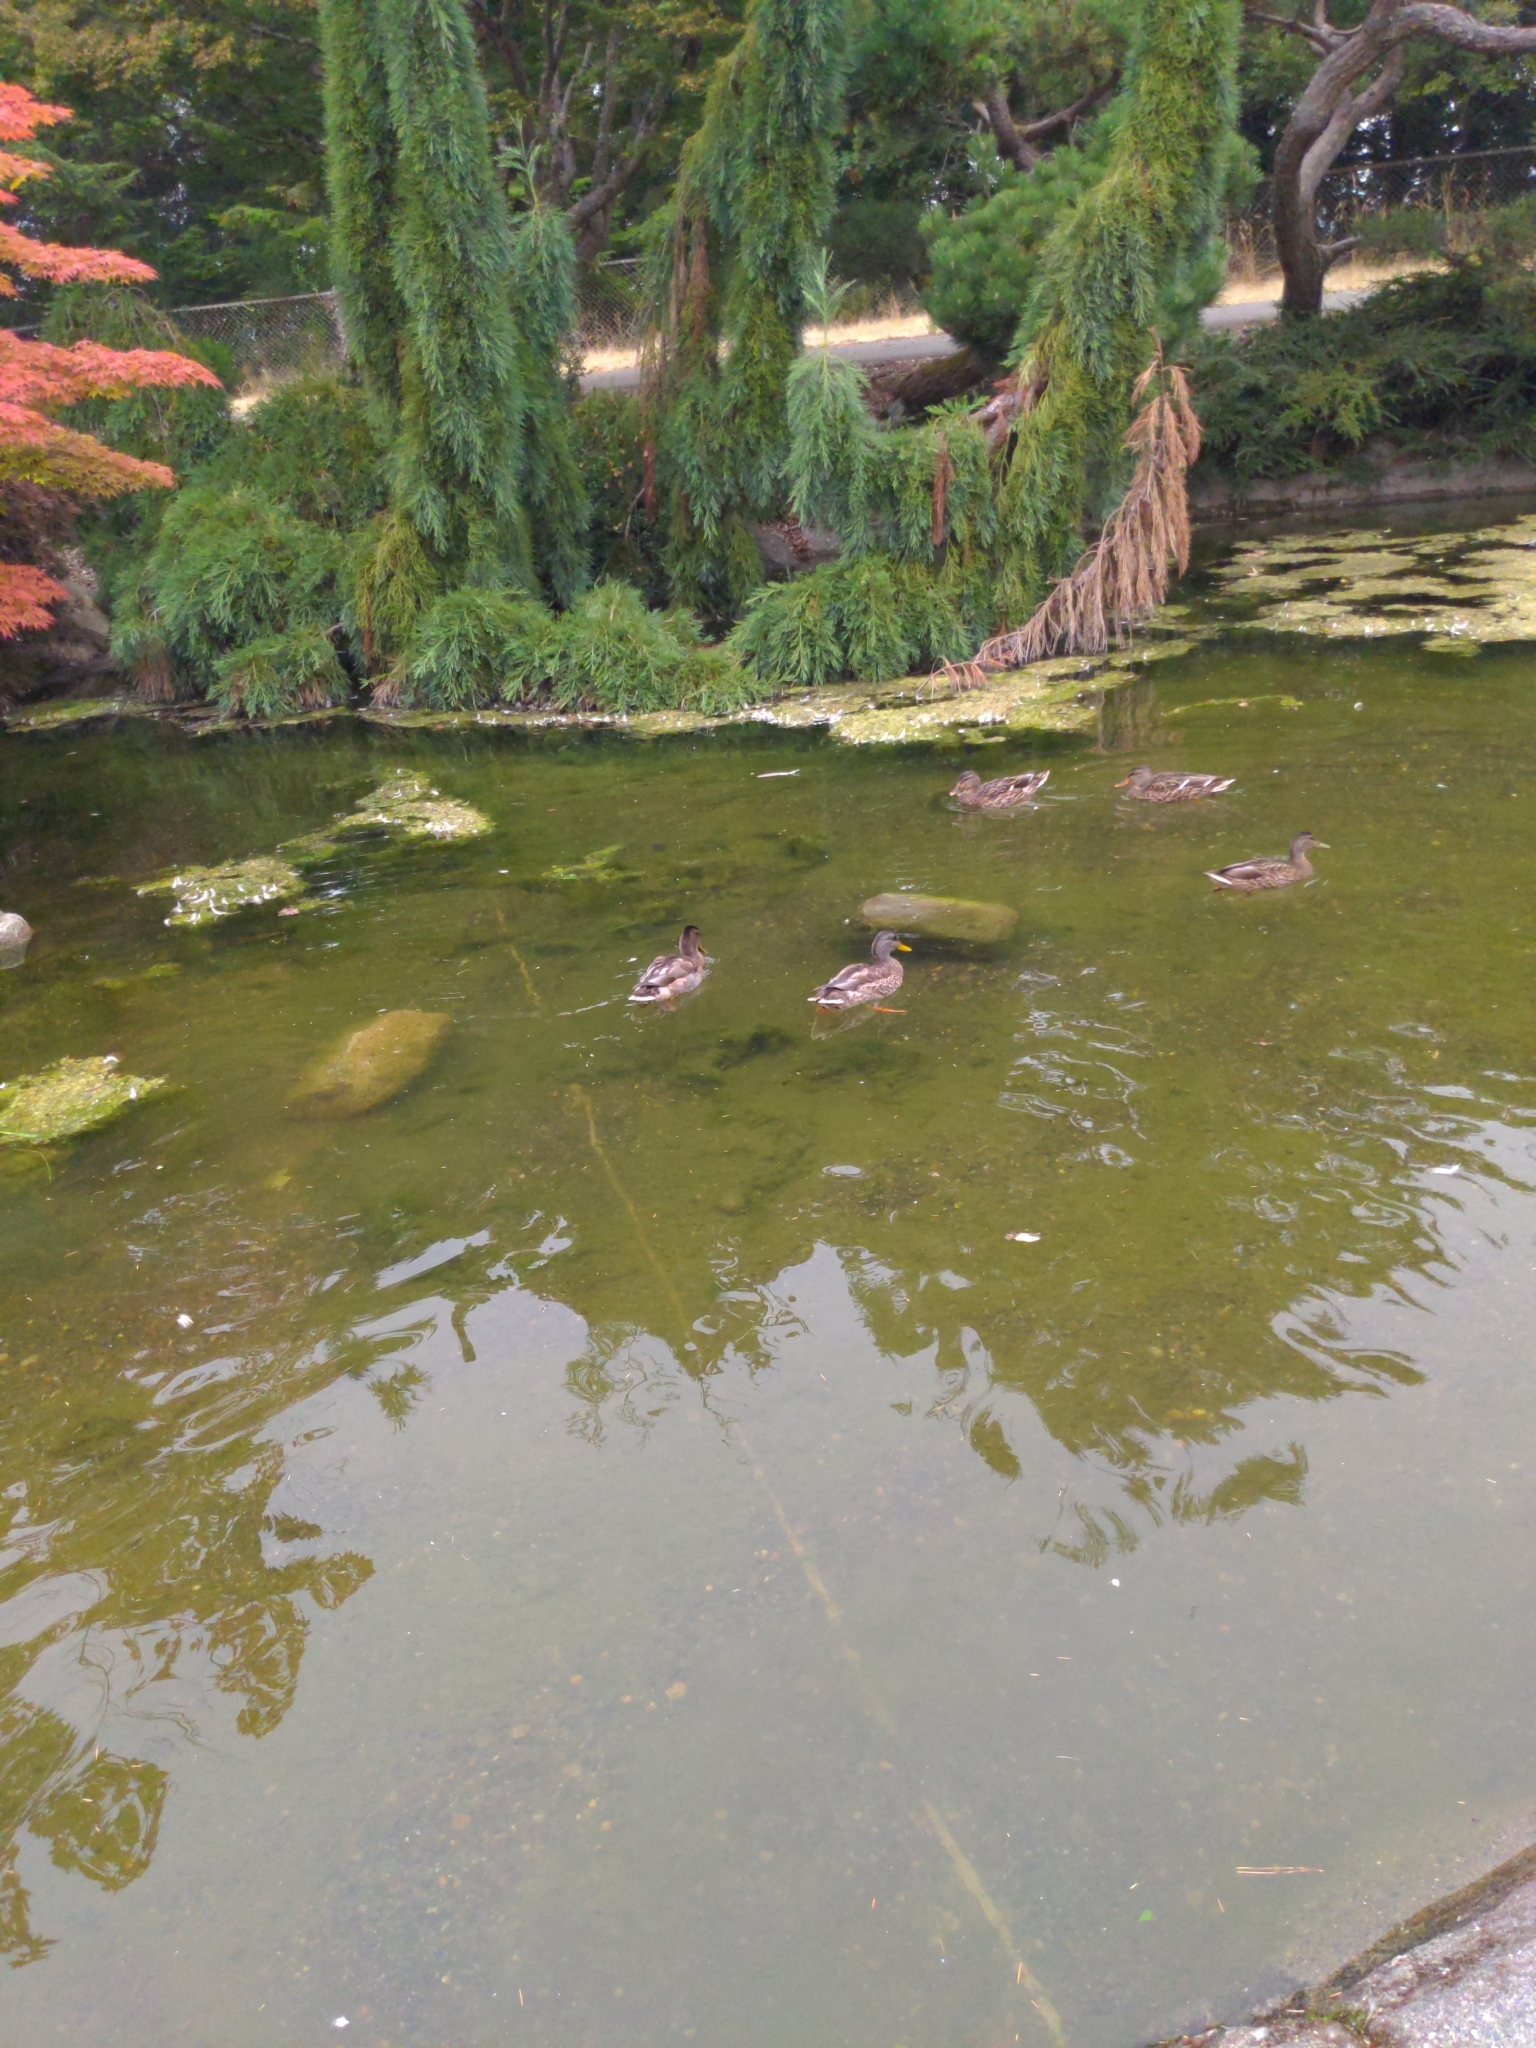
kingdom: Animalia
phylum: Chordata
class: Aves
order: Anseriformes
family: Anatidae
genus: Anas
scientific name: Anas platyrhynchos
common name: Mallard
